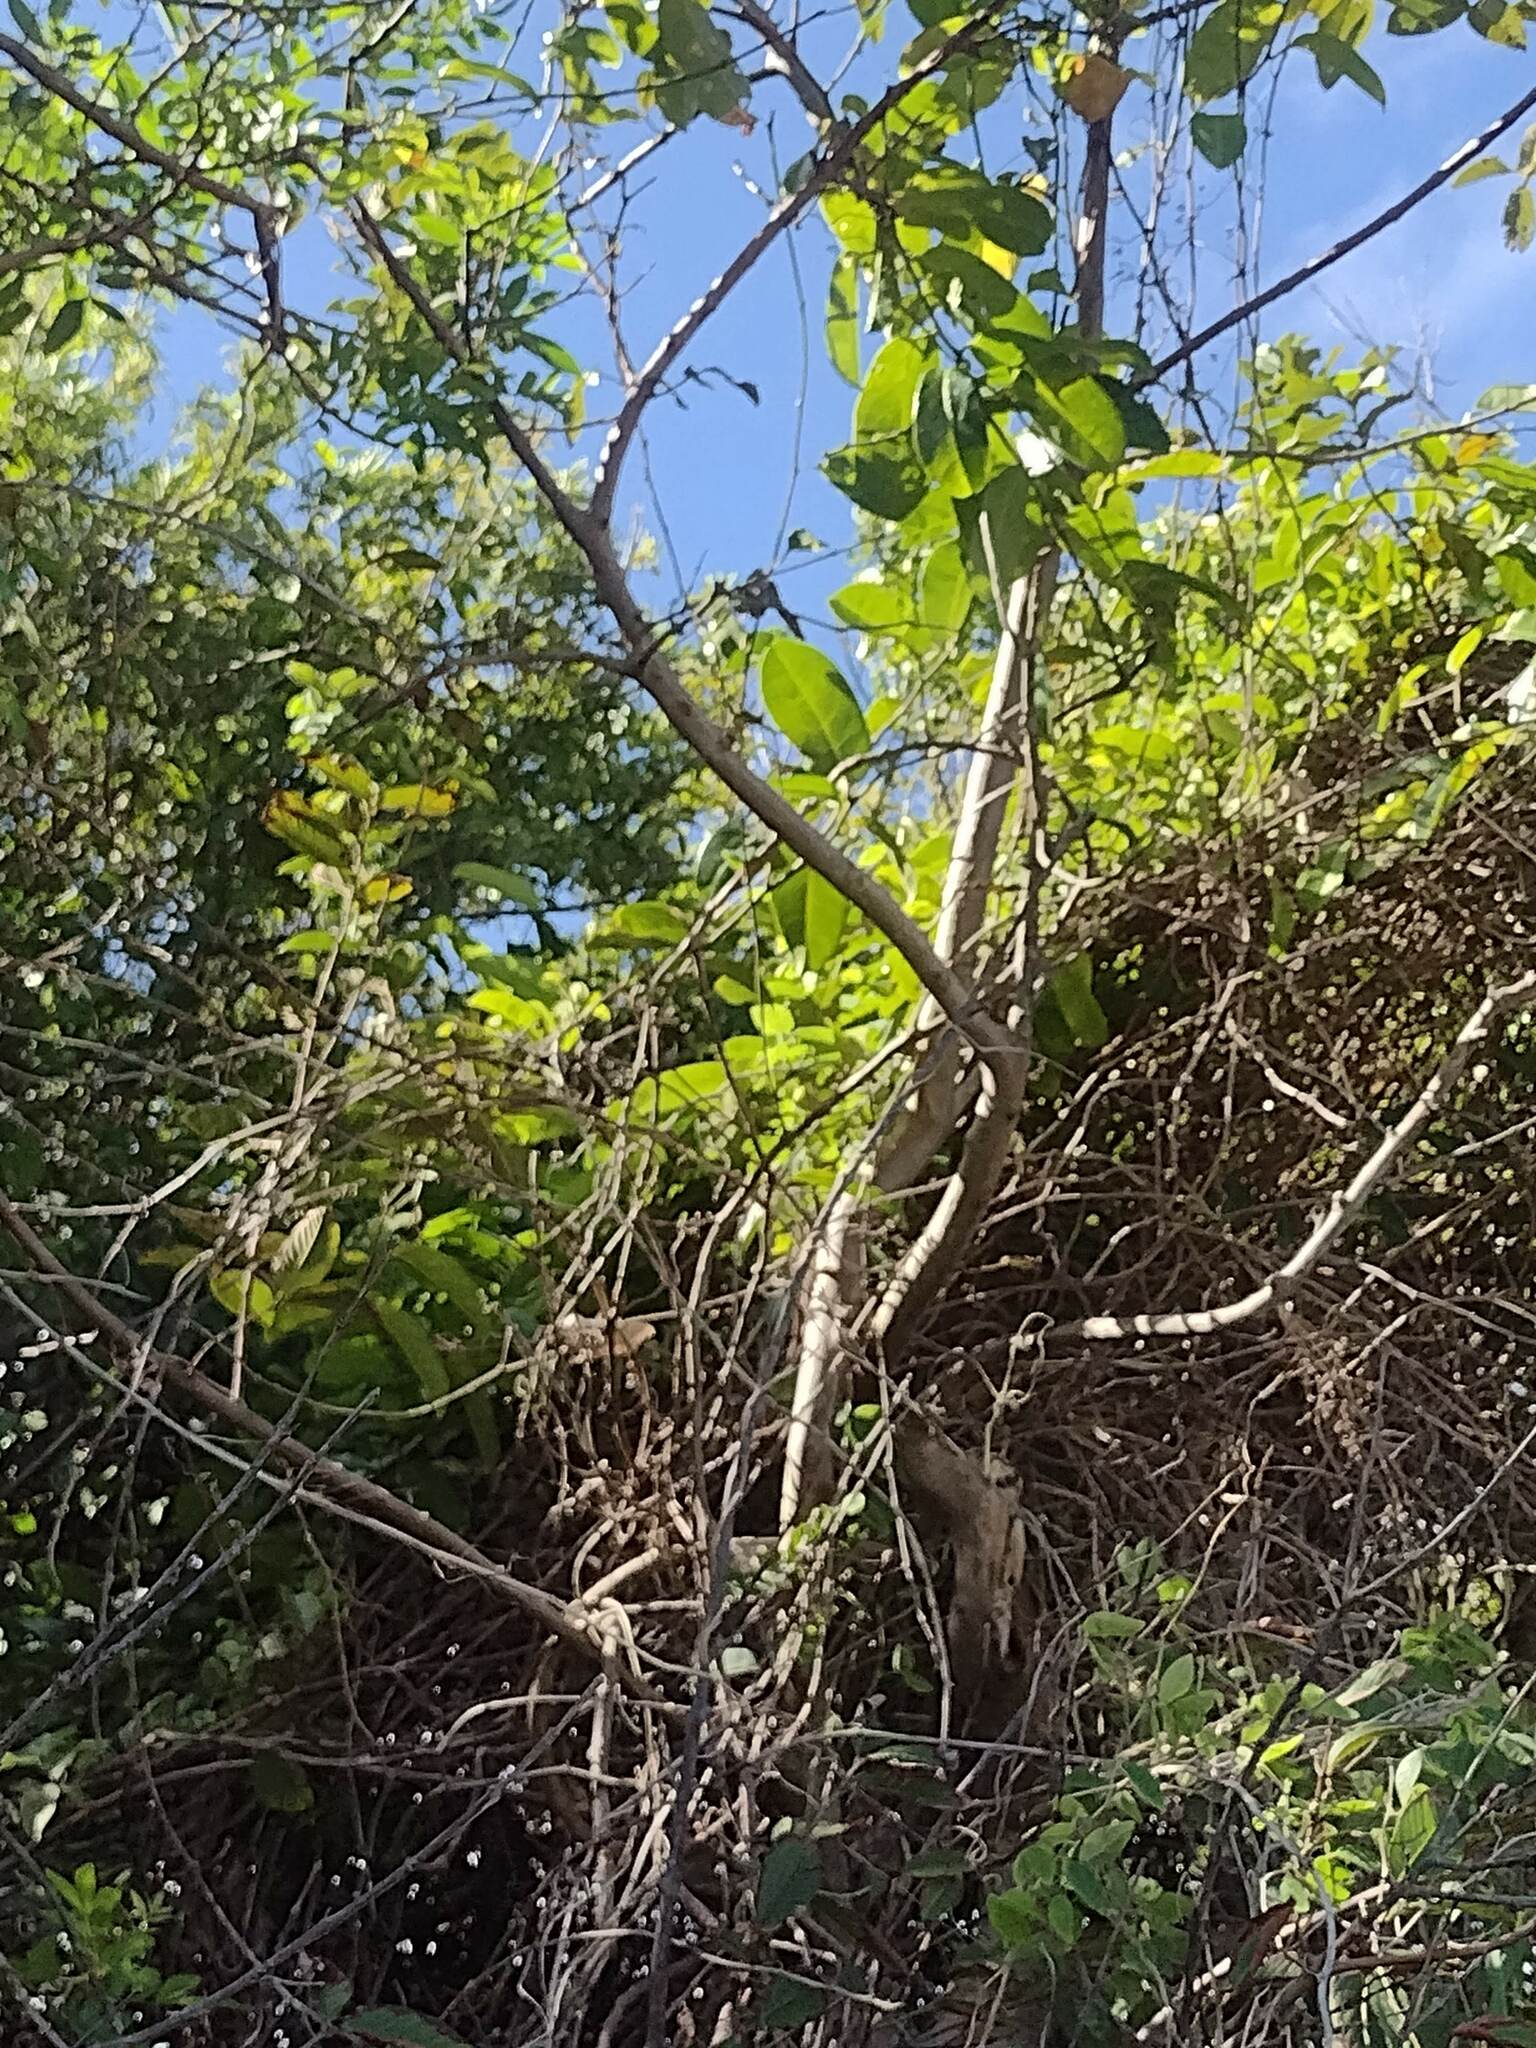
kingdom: Plantae
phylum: Tracheophyta
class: Magnoliopsida
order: Malpighiales
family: Passifloraceae
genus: Passiflora
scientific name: Passiflora laurifolia
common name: Bell apple
